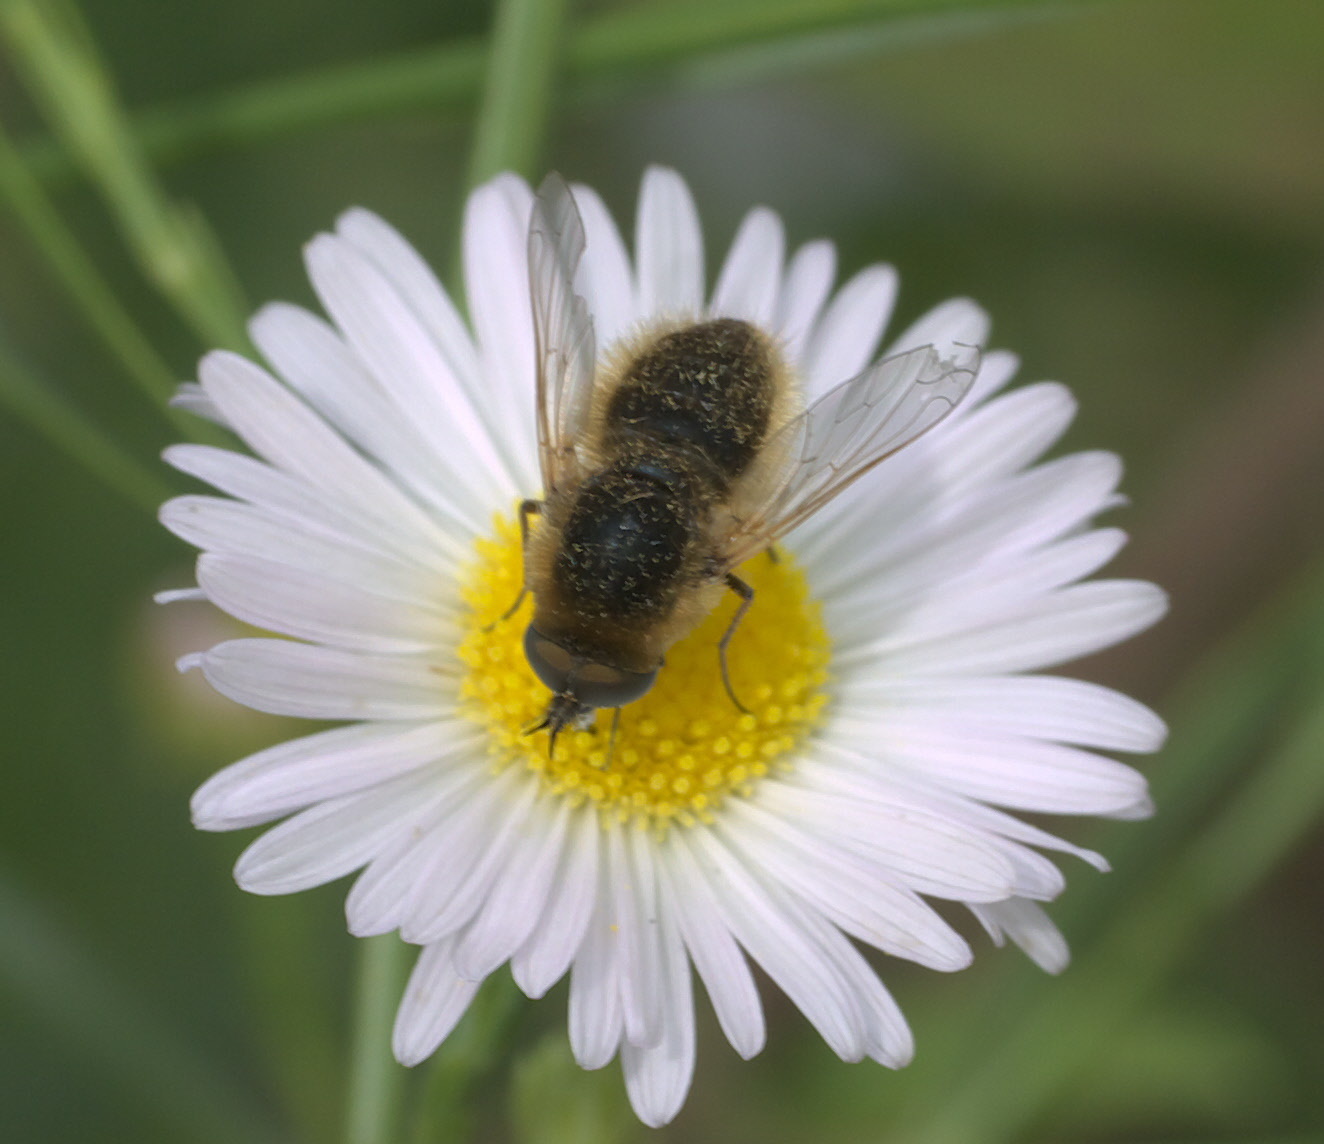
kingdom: Animalia
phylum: Arthropoda
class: Insecta
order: Diptera
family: Bombyliidae
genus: Sparnopolius
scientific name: Sparnopolius confusus
